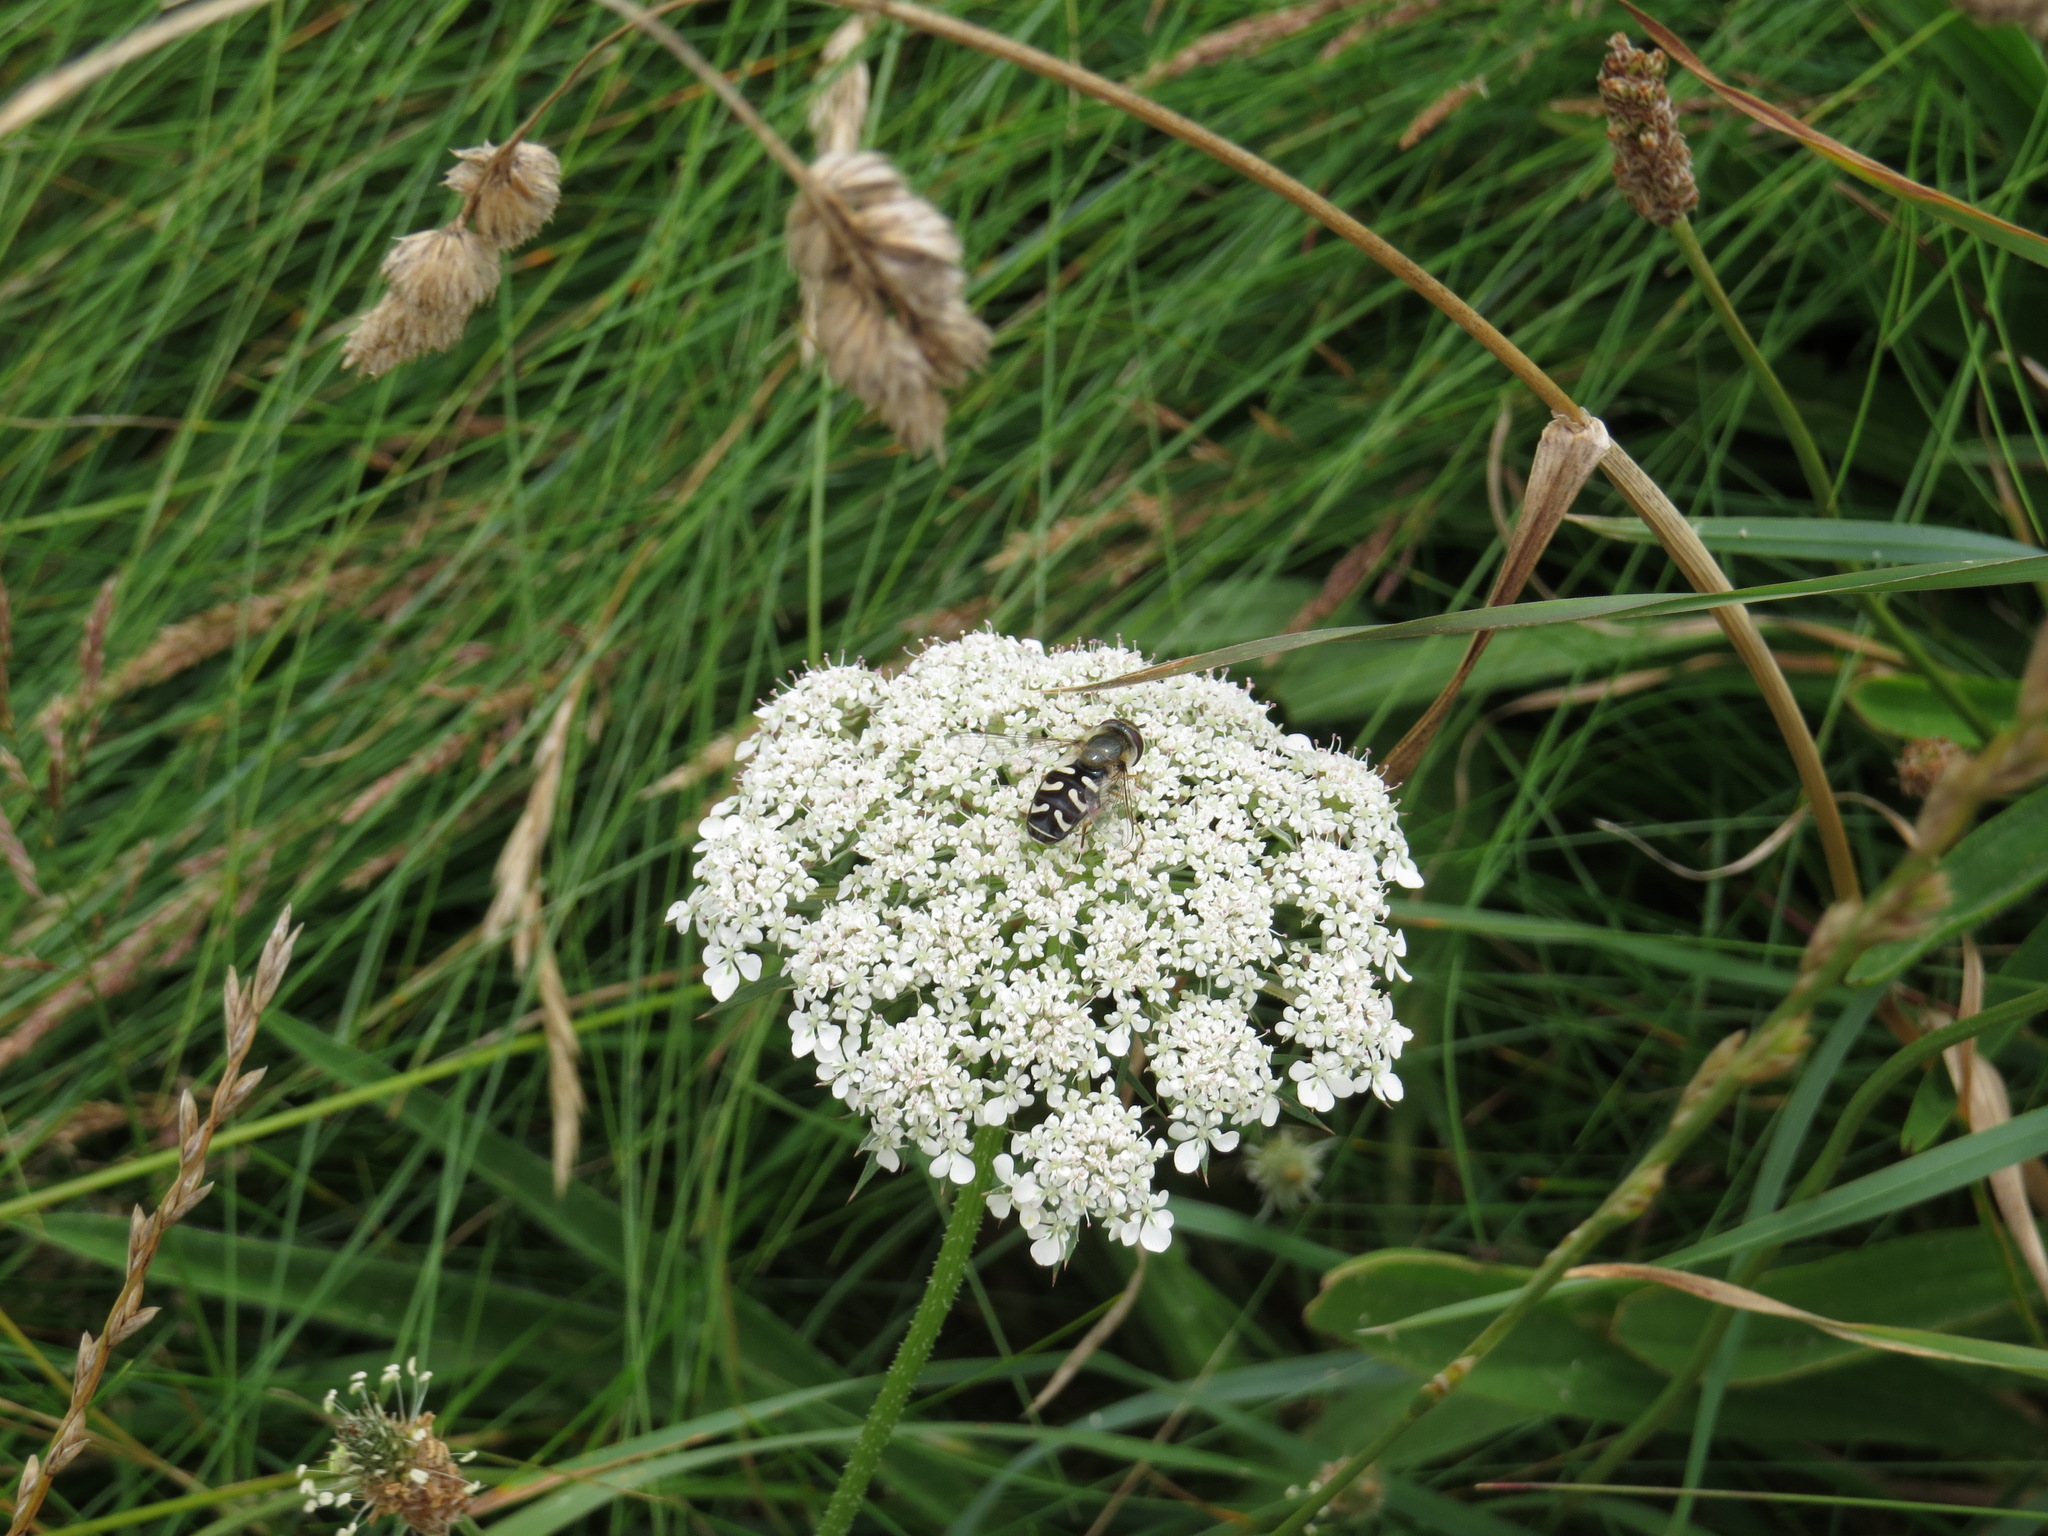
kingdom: Animalia
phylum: Arthropoda
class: Insecta
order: Diptera
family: Syrphidae
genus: Scaeva
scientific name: Scaeva pyrastri
